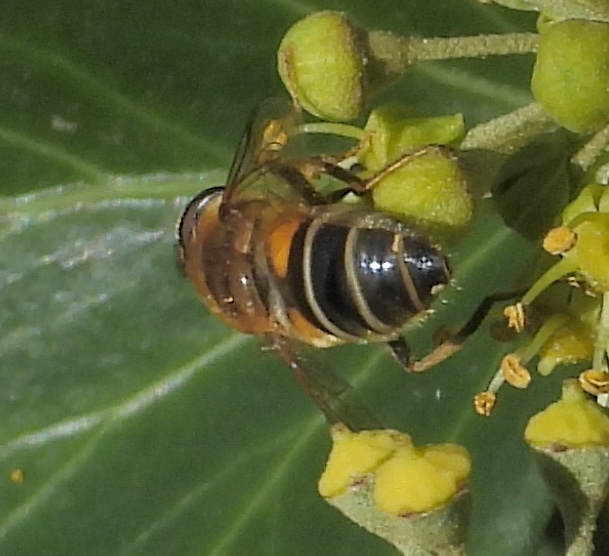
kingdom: Animalia
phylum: Arthropoda
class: Insecta
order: Diptera
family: Syrphidae
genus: Eristalis
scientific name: Eristalis pertinax
